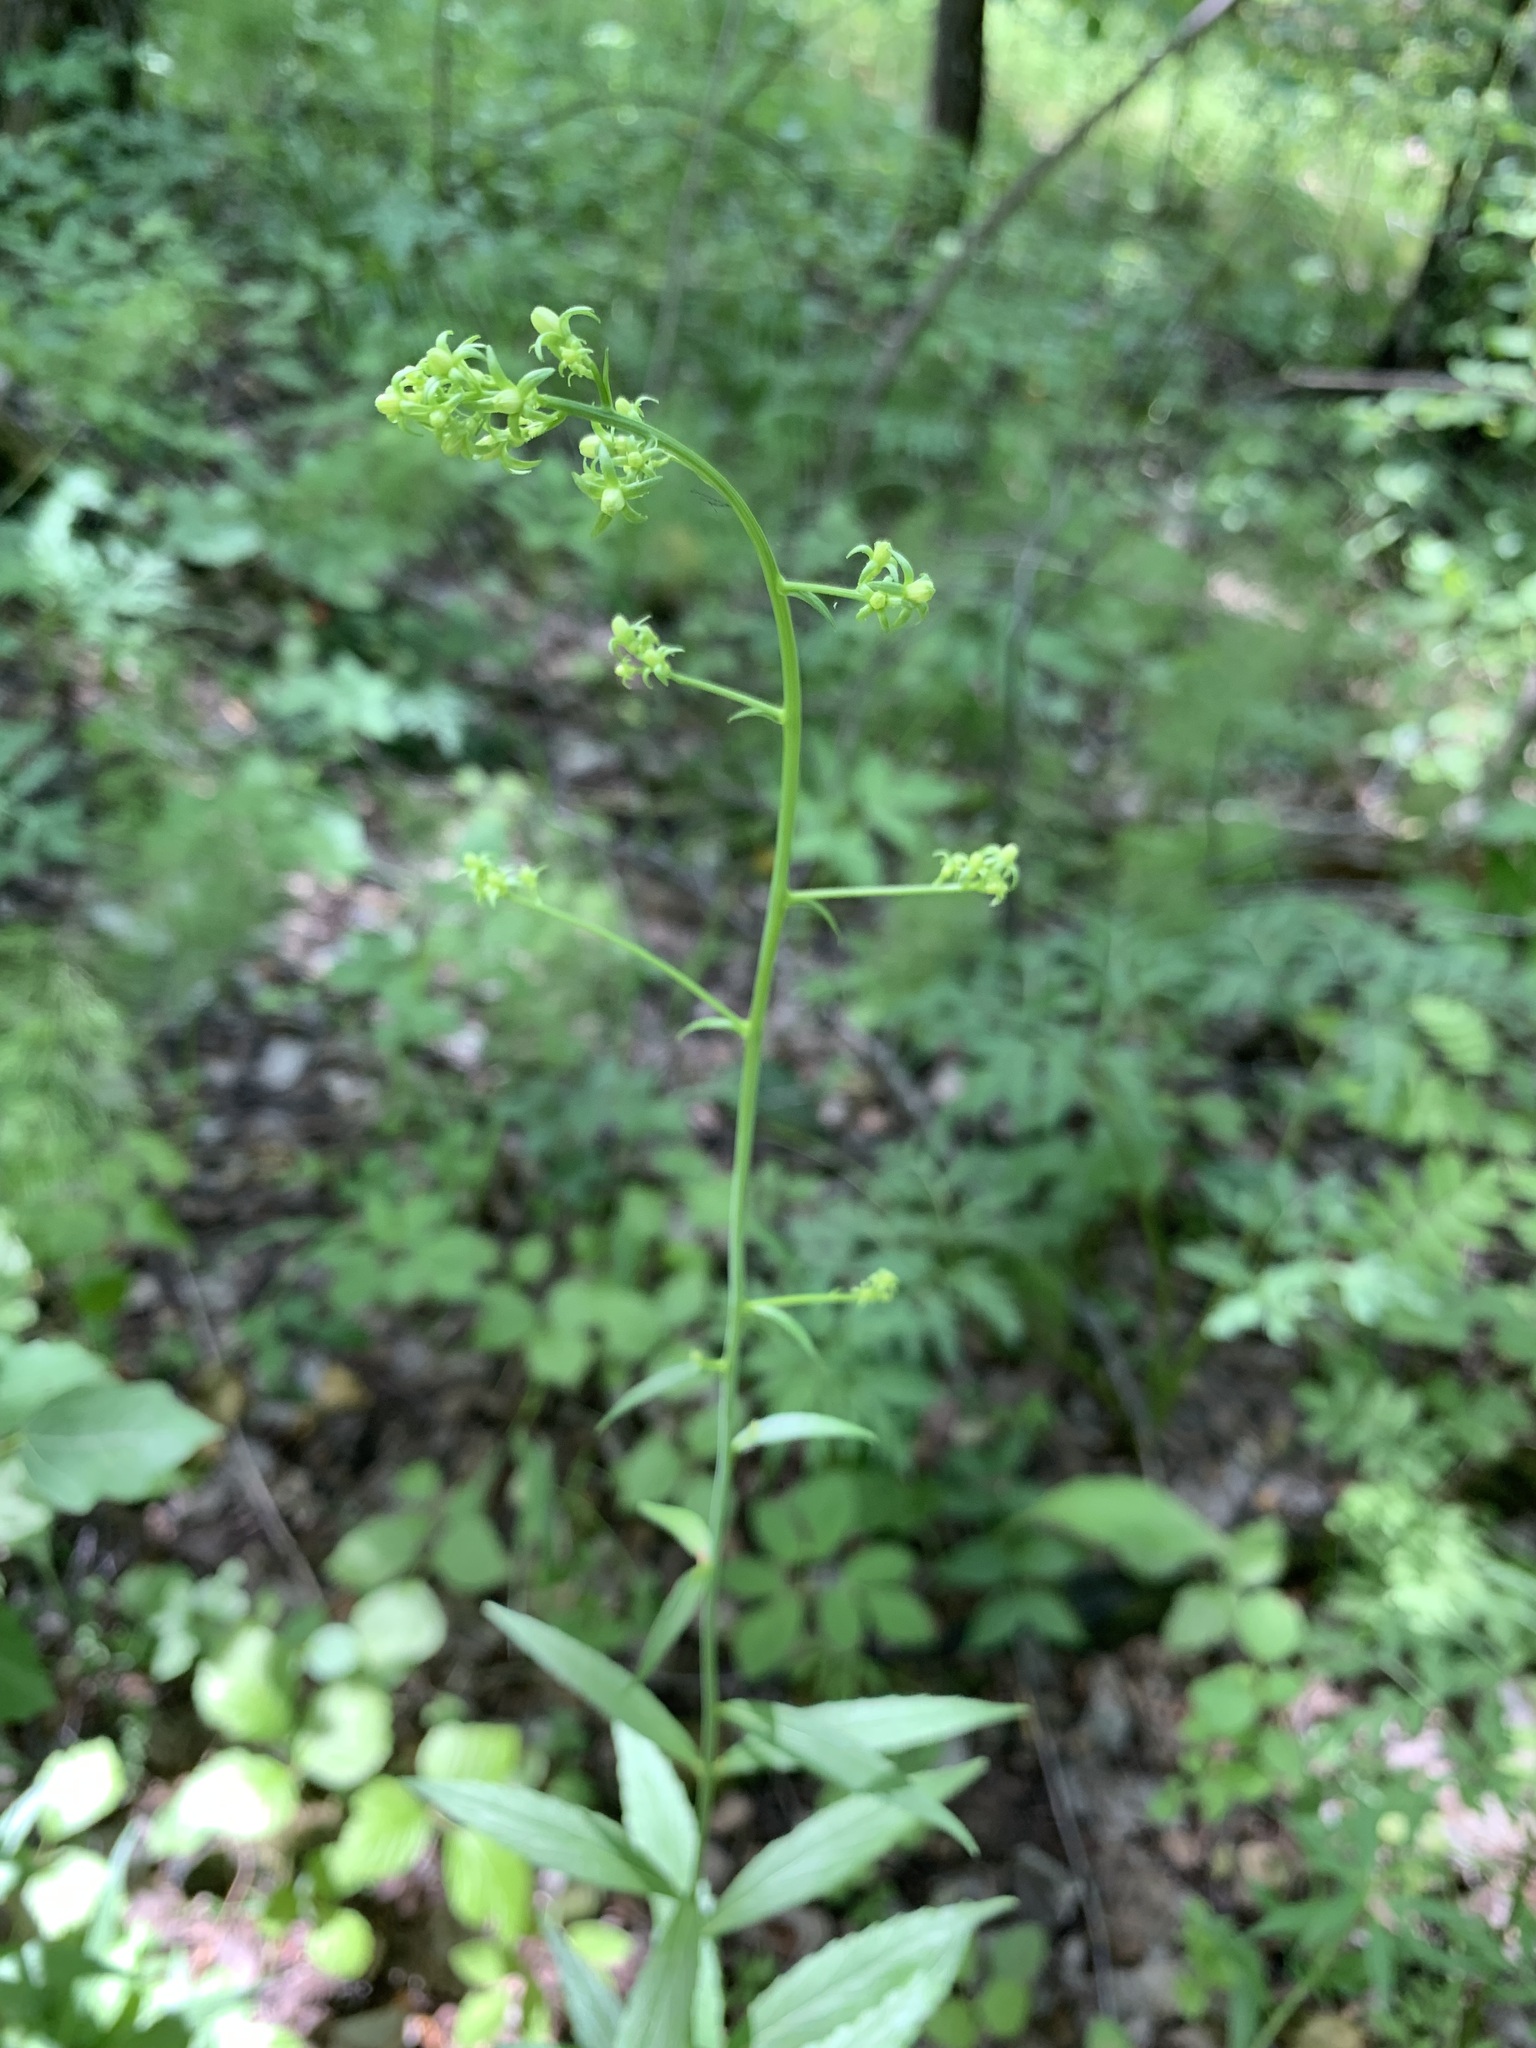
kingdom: Plantae
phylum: Tracheophyta
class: Magnoliopsida
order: Asterales
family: Campanulaceae
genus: Adenophora
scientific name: Adenophora liliifolia
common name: Lilyleaf ladybells
